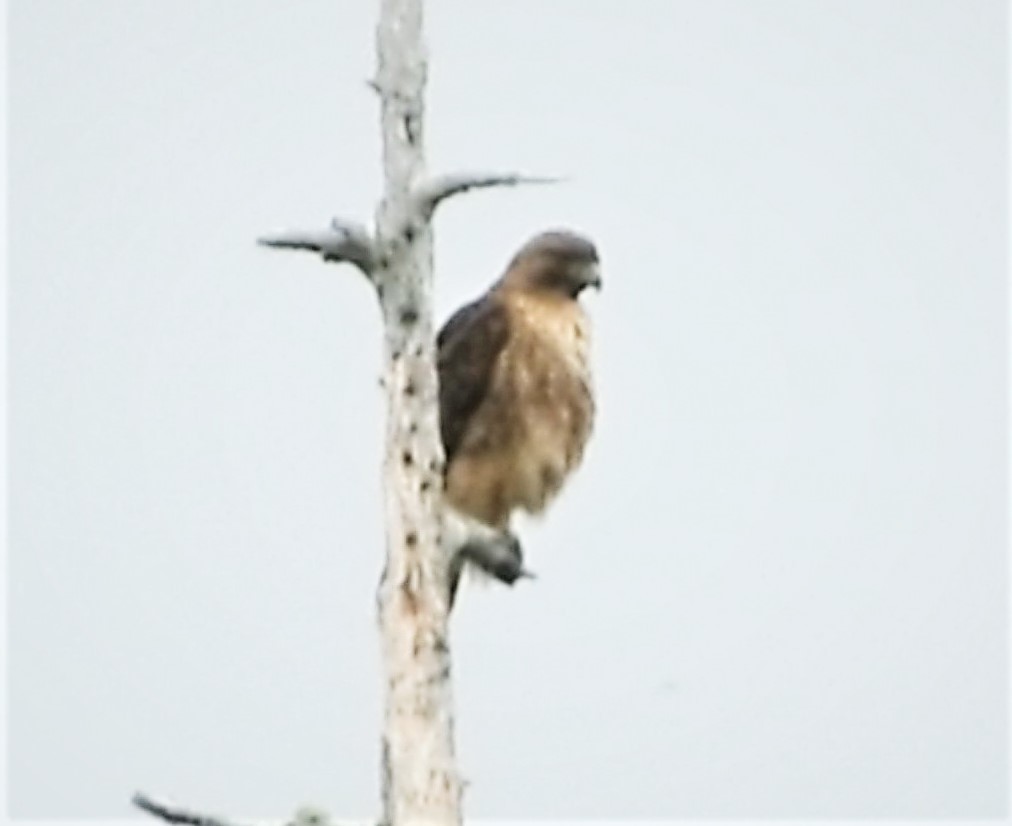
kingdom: Animalia
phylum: Chordata
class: Aves
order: Accipitriformes
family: Accipitridae
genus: Buteo
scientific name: Buteo jamaicensis
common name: Red-tailed hawk
